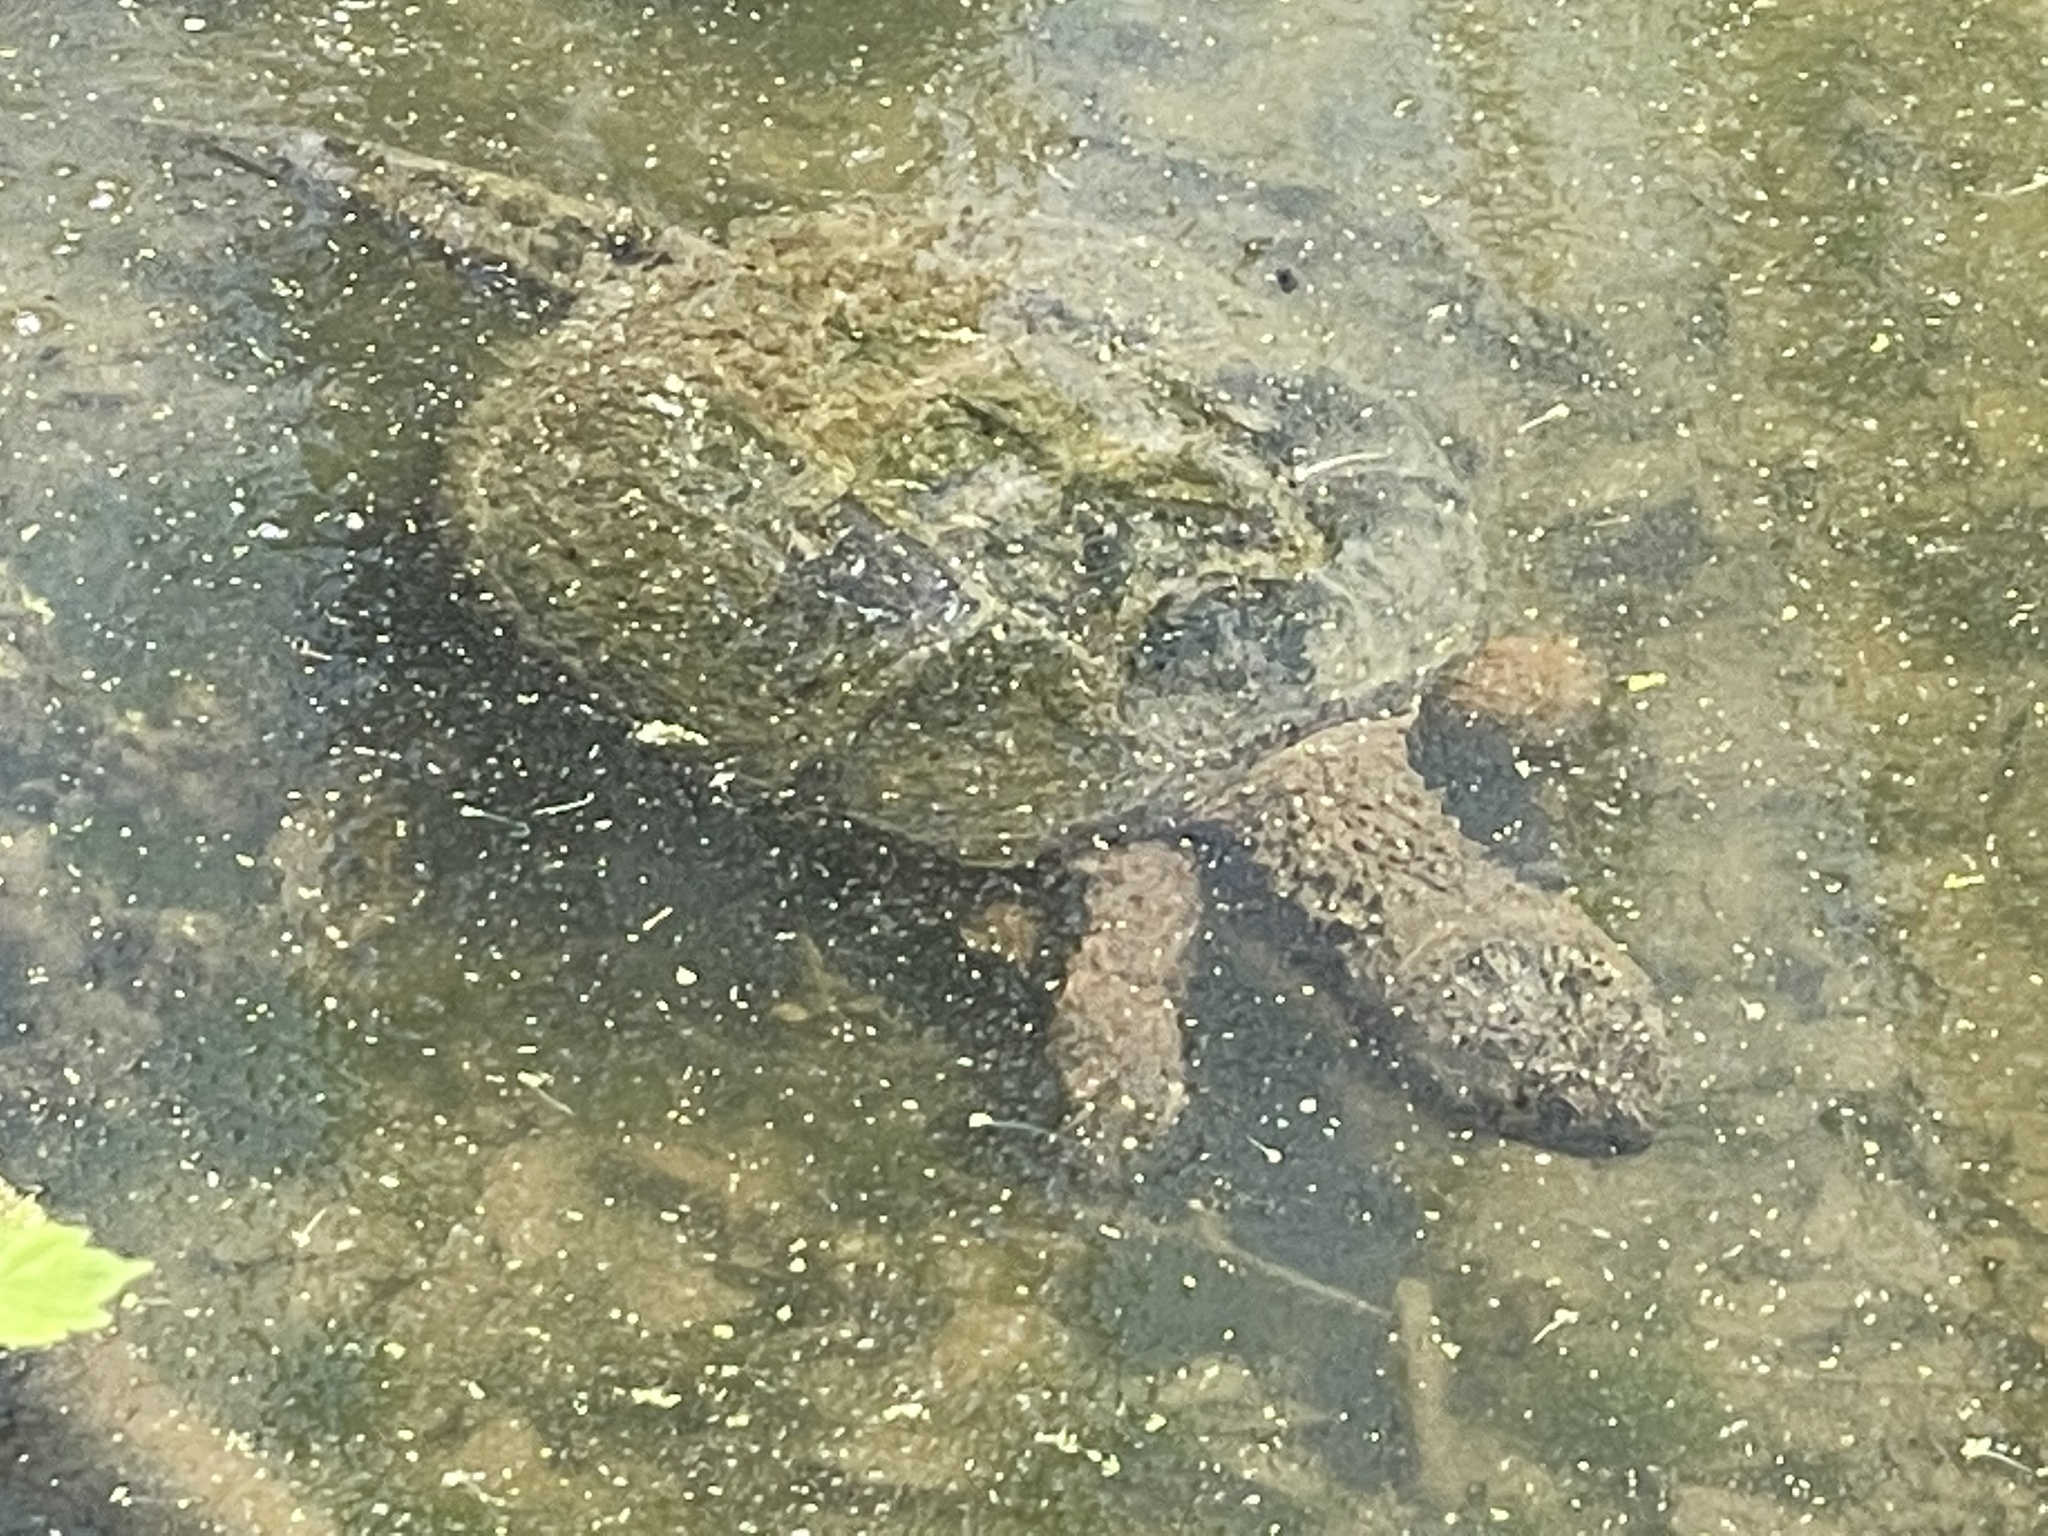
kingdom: Animalia
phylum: Chordata
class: Testudines
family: Chelydridae
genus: Chelydra
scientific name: Chelydra serpentina
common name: Common snapping turtle
